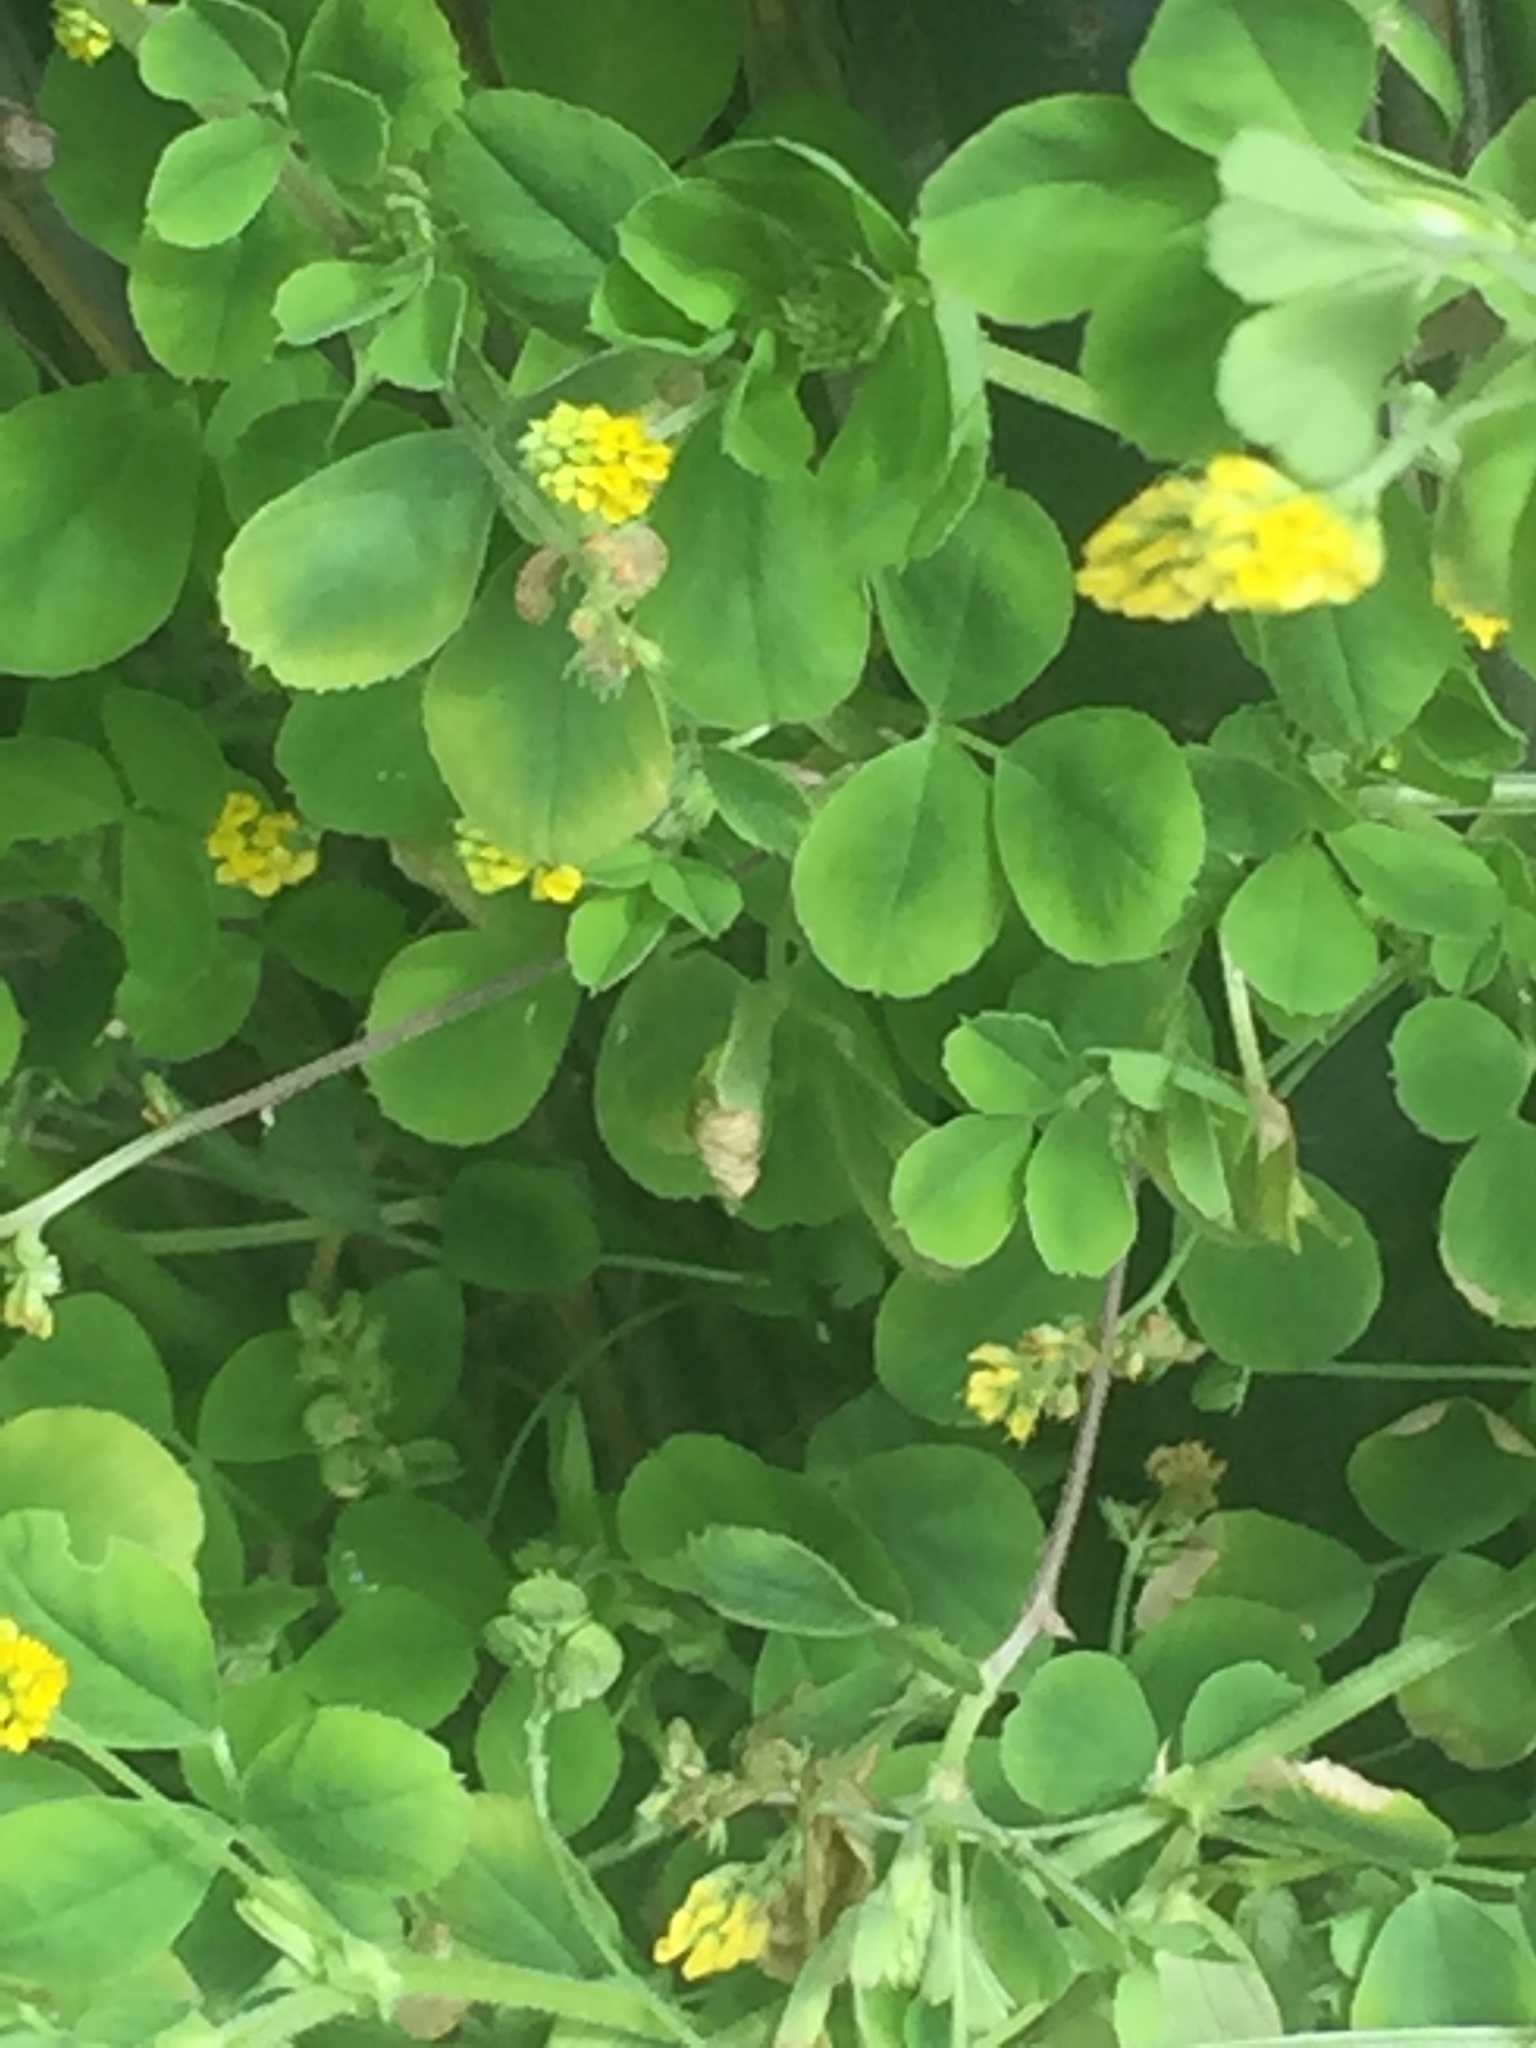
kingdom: Plantae
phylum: Tracheophyta
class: Magnoliopsida
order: Fabales
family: Fabaceae
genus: Medicago
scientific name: Medicago lupulina
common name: Black medick
